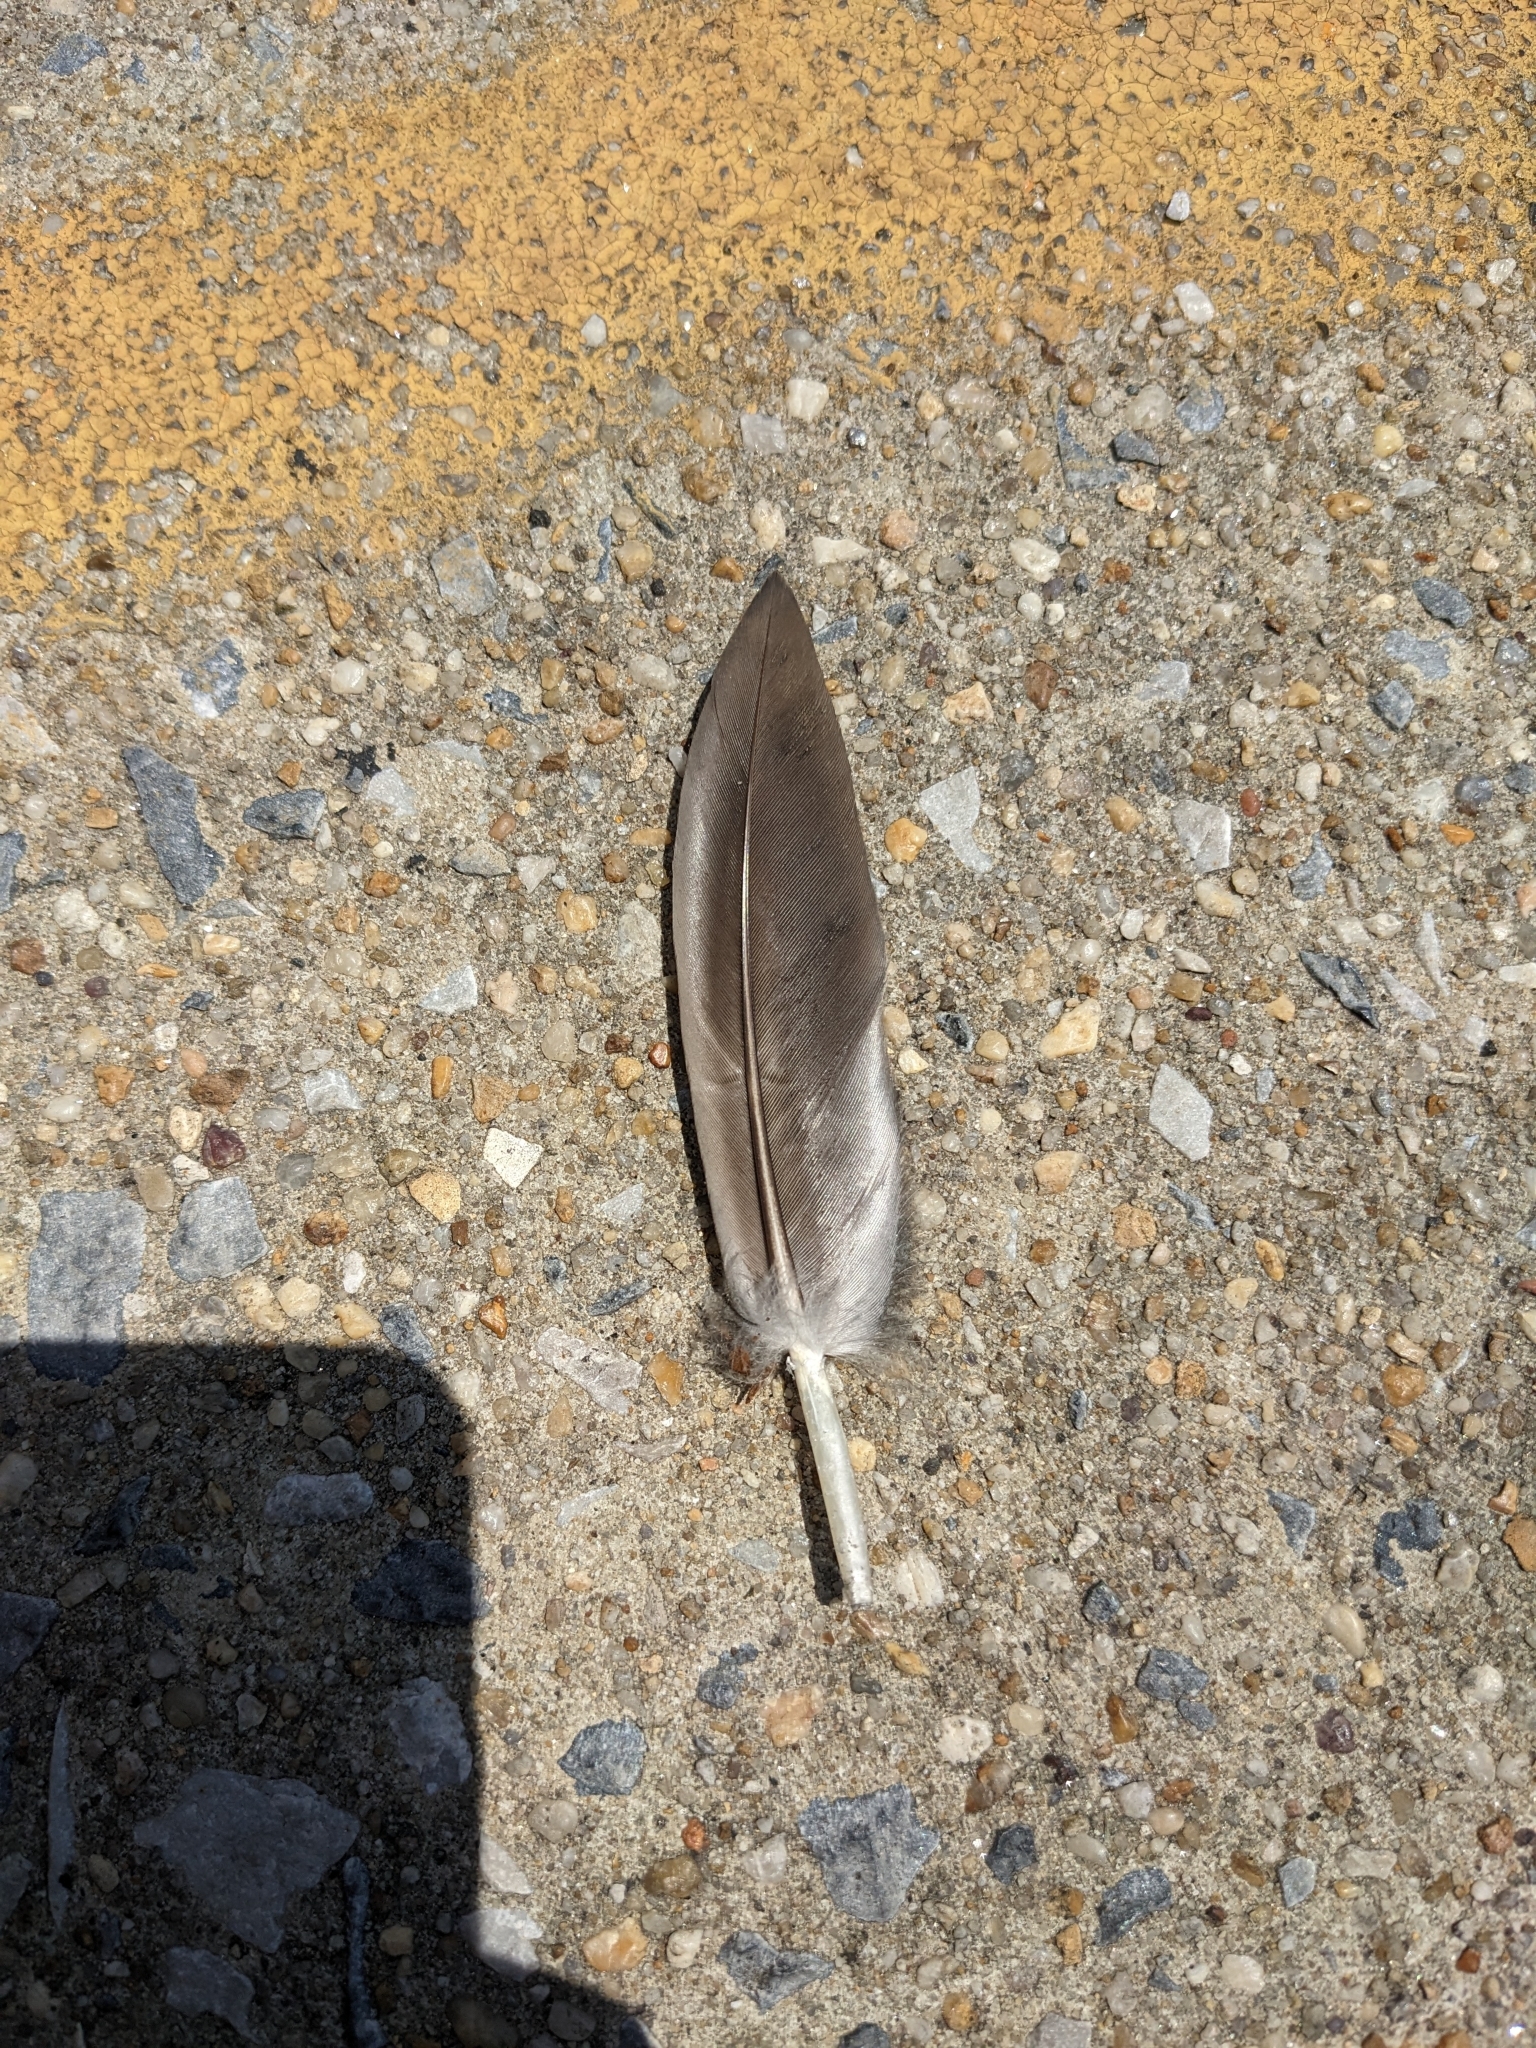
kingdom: Animalia
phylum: Chordata
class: Aves
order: Anseriformes
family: Anatidae
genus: Branta
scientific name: Branta canadensis
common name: Canada goose
